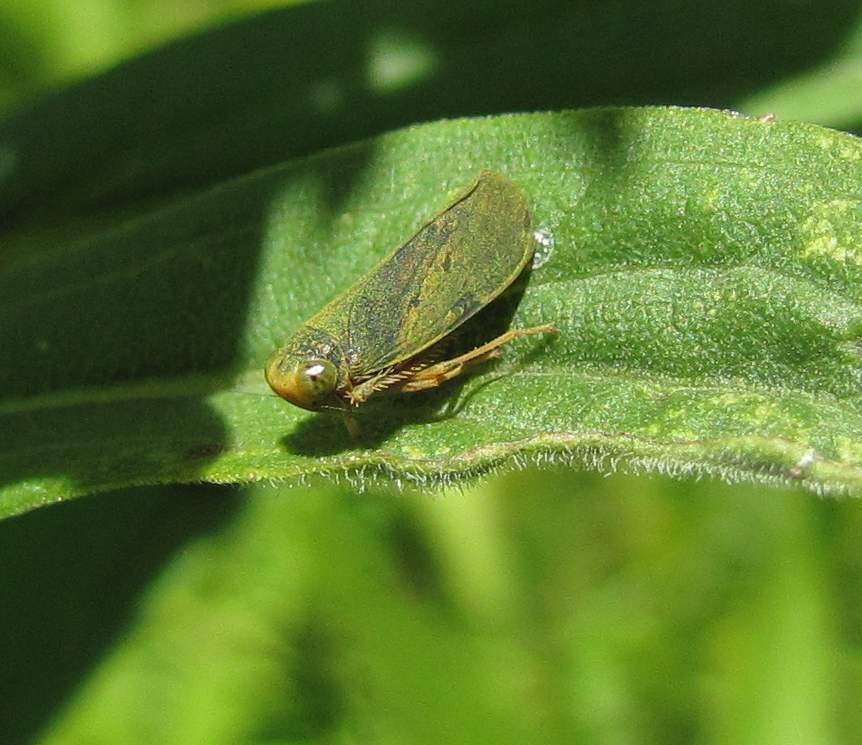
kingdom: Animalia
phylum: Arthropoda
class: Insecta
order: Hemiptera
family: Cicadellidae
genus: Jikradia
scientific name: Jikradia olitoria
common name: Coppery leafhopper
